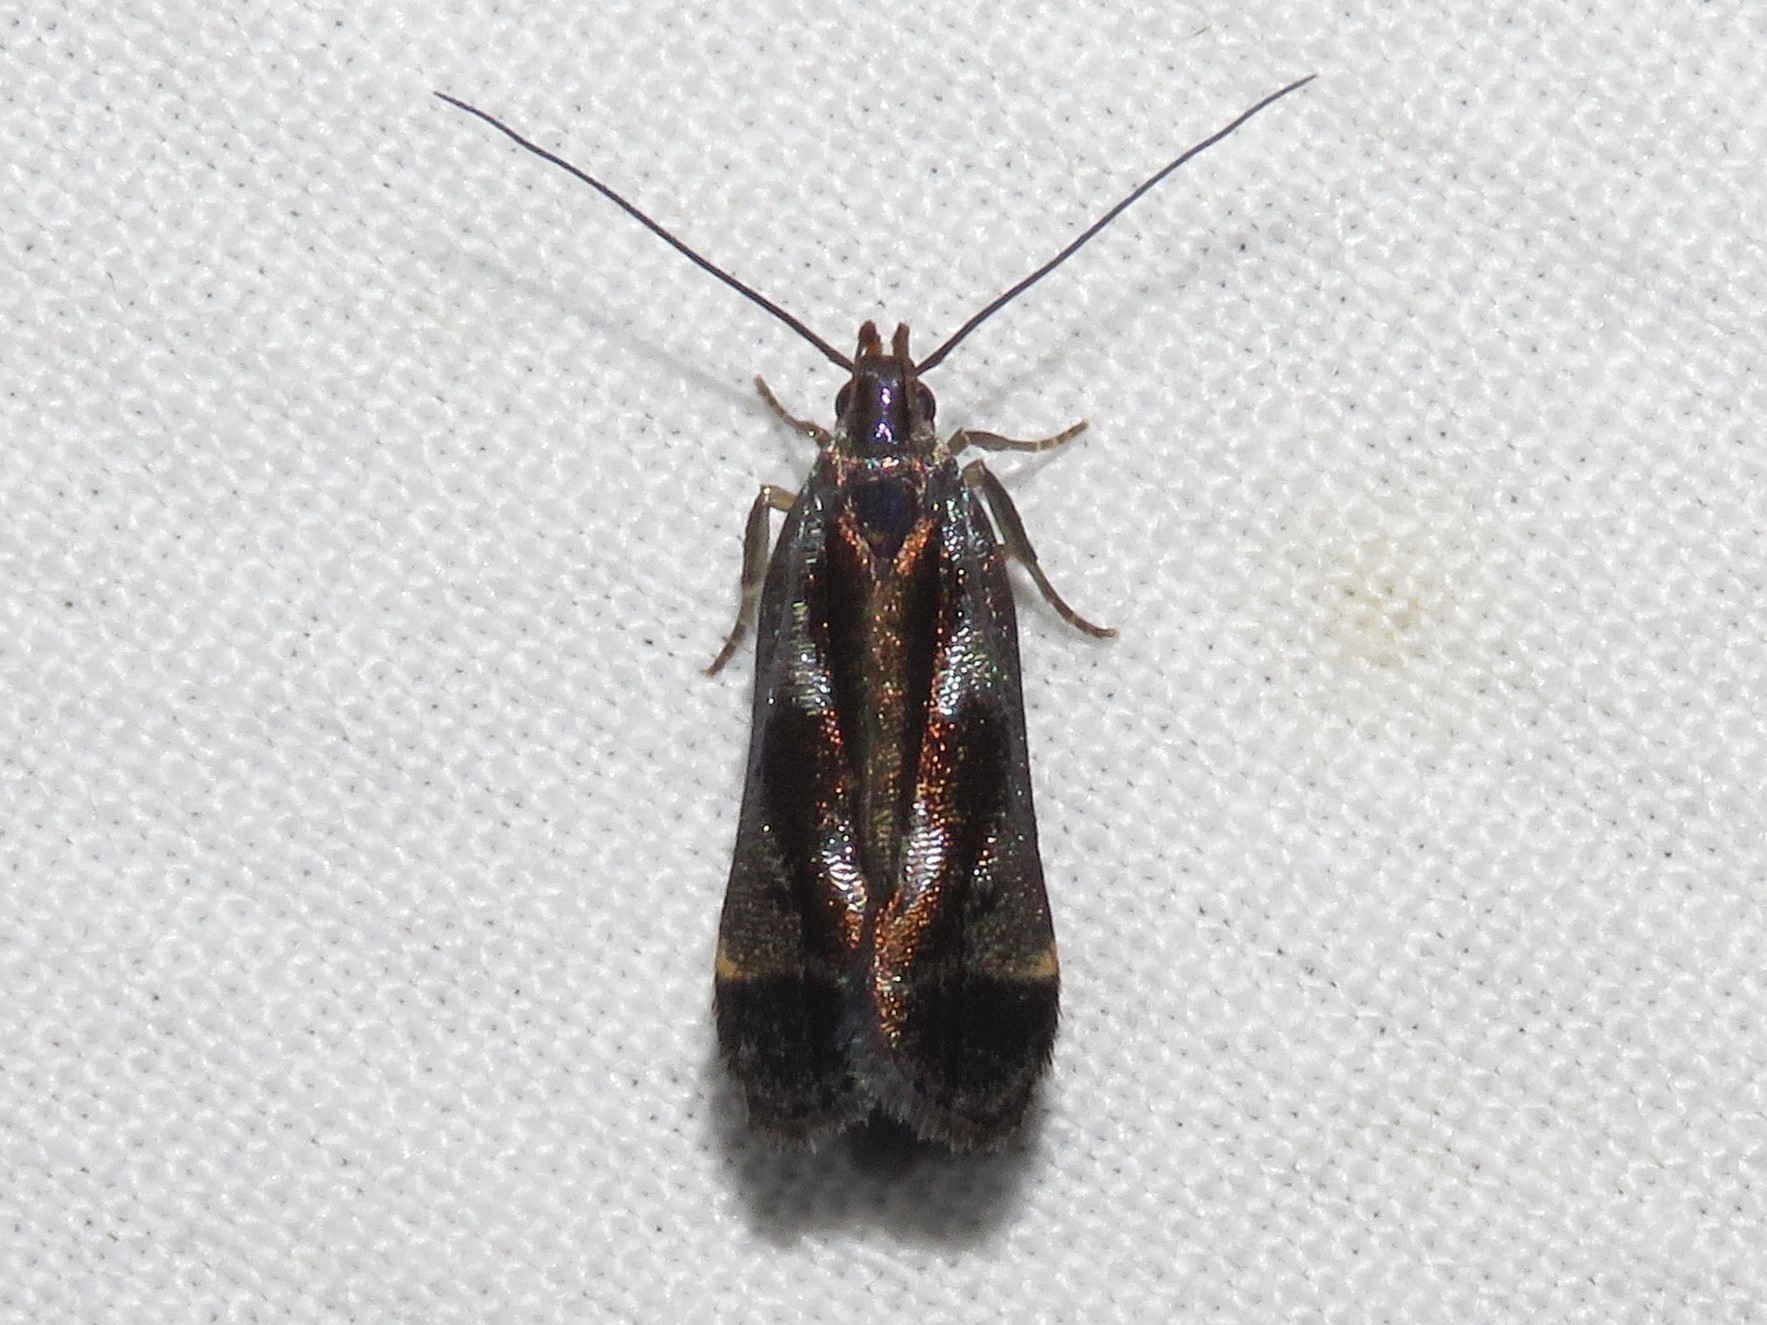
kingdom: Animalia
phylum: Arthropoda
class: Insecta
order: Lepidoptera
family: Gelechiidae
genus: Dichomeris
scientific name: Dichomeris ochripalpella
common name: Shining dichomeris moth
